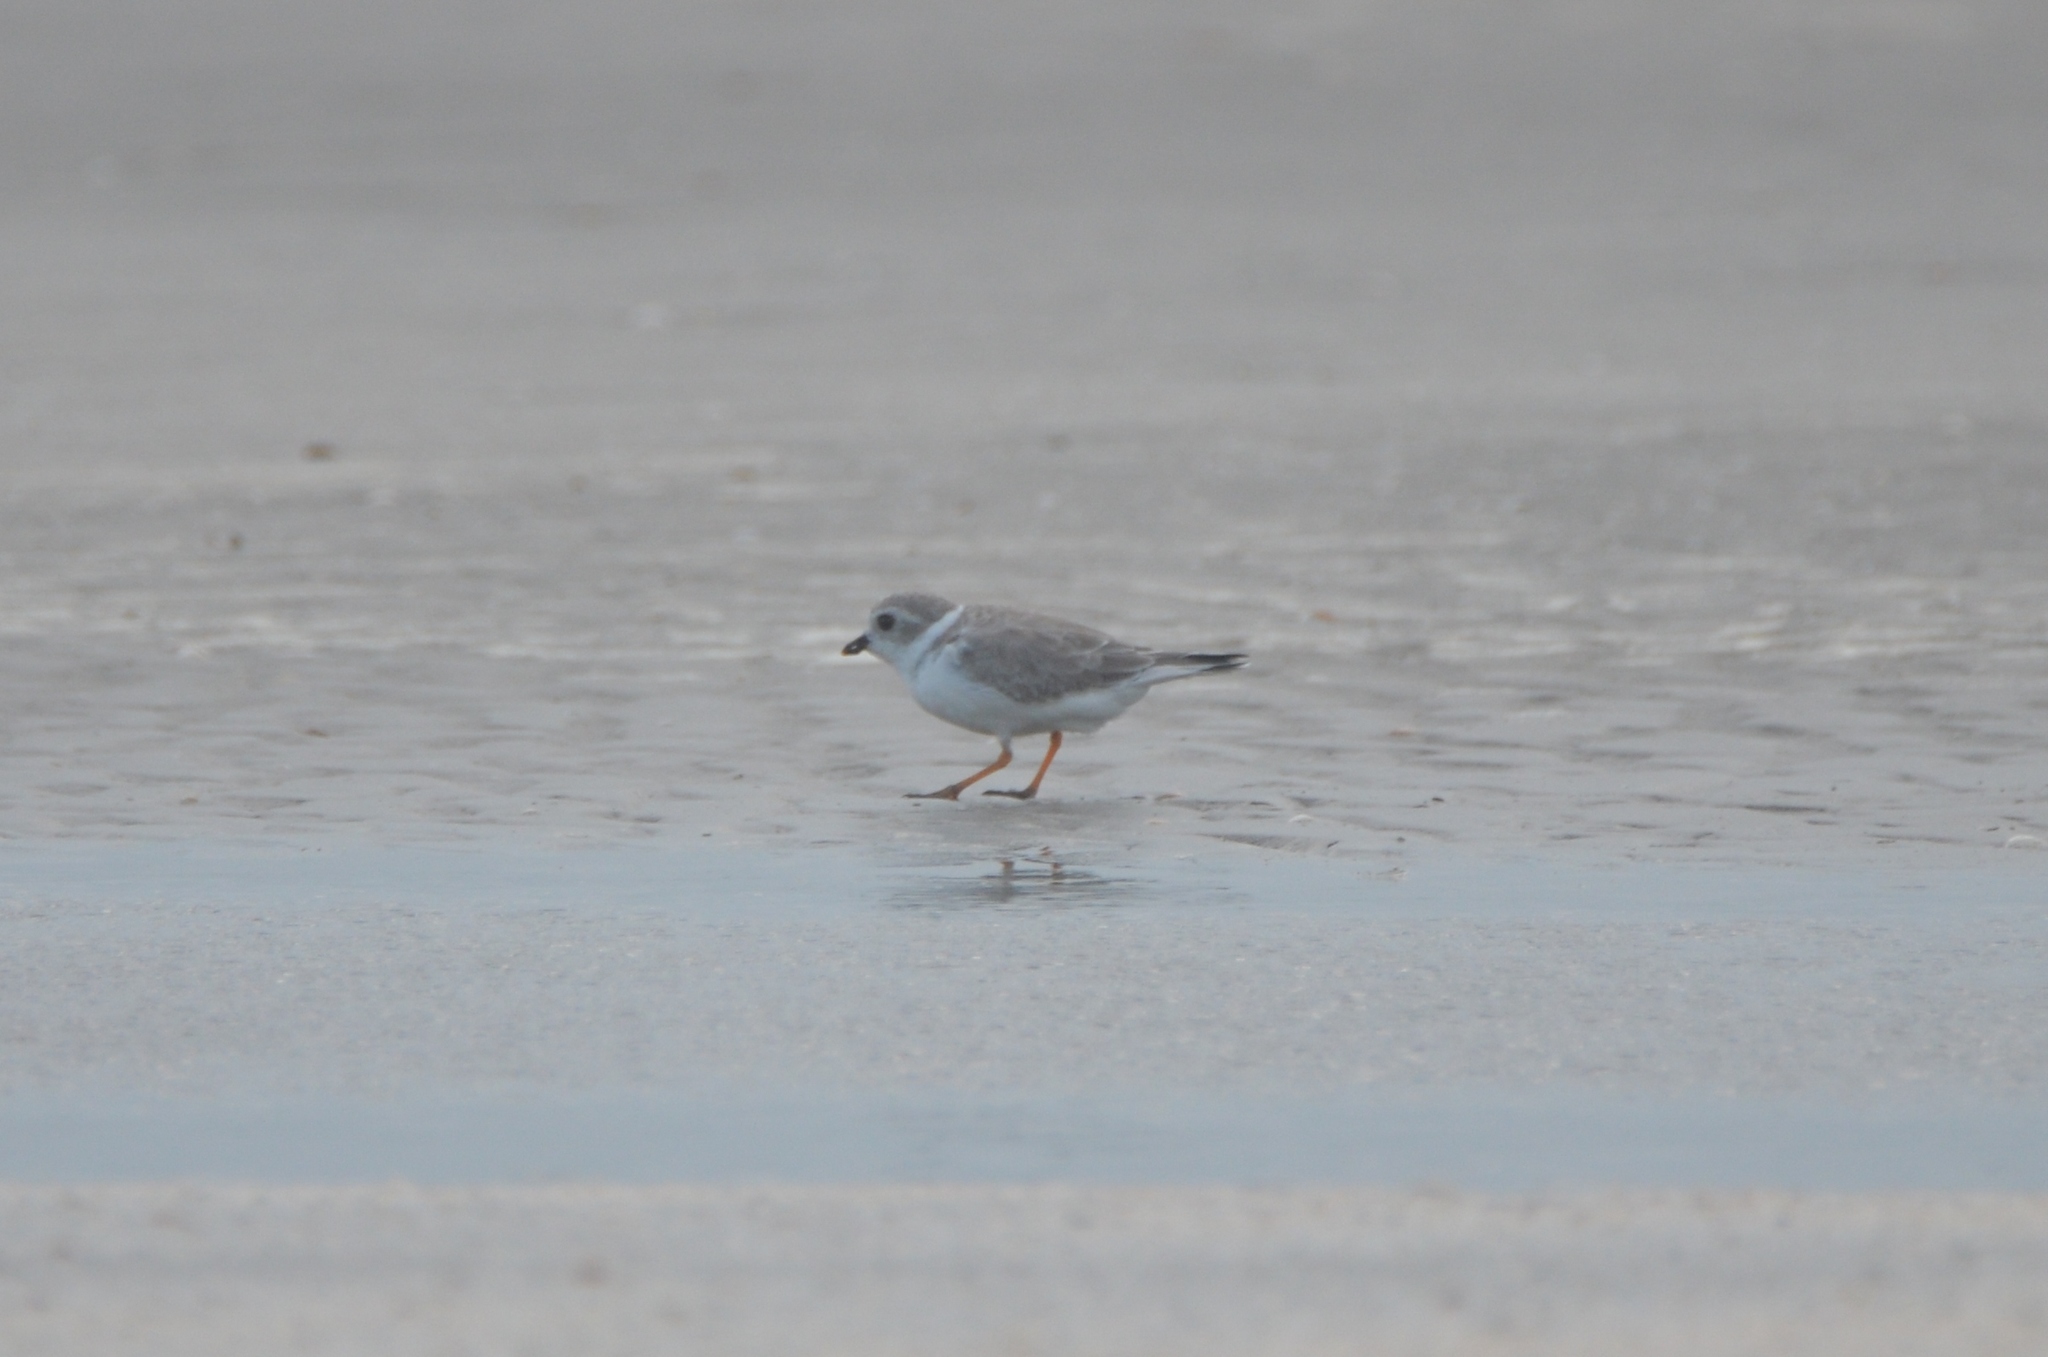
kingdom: Animalia
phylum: Chordata
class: Aves
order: Charadriiformes
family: Charadriidae
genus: Charadrius
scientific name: Charadrius melodus
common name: Piping plover
